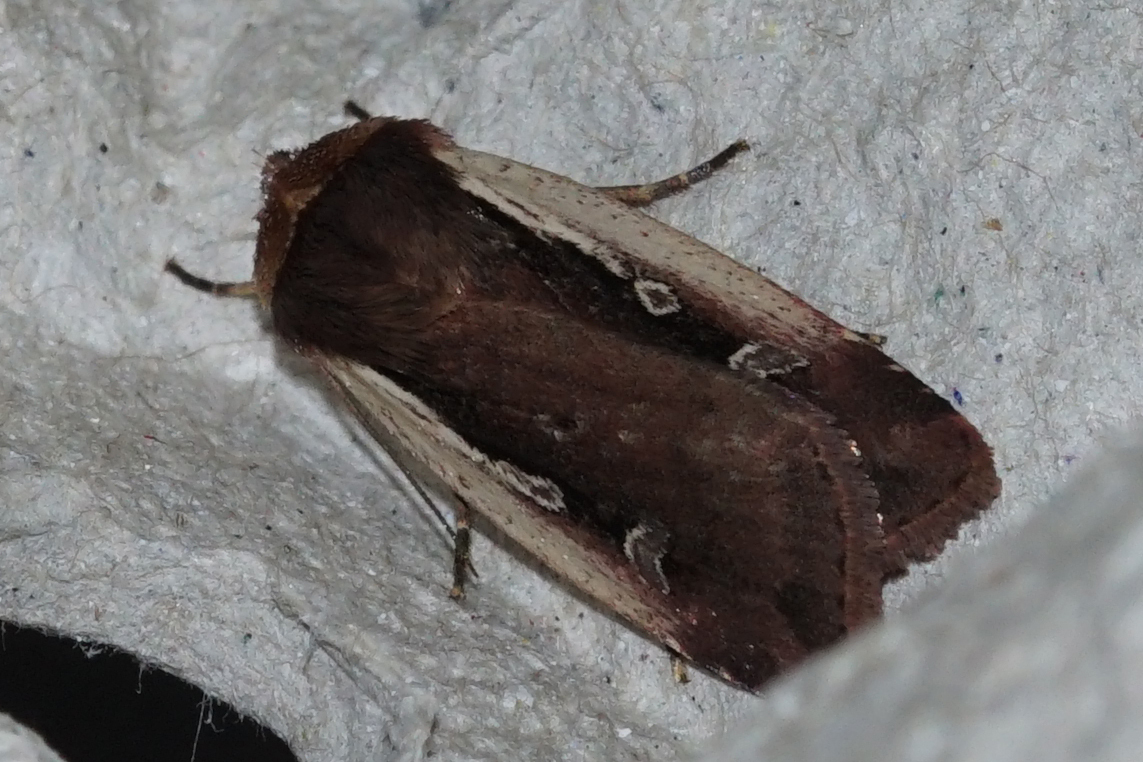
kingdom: Animalia
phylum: Arthropoda
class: Insecta
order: Lepidoptera
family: Noctuidae
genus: Ochropleura
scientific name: Ochropleura plecta
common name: Flame shoulder
